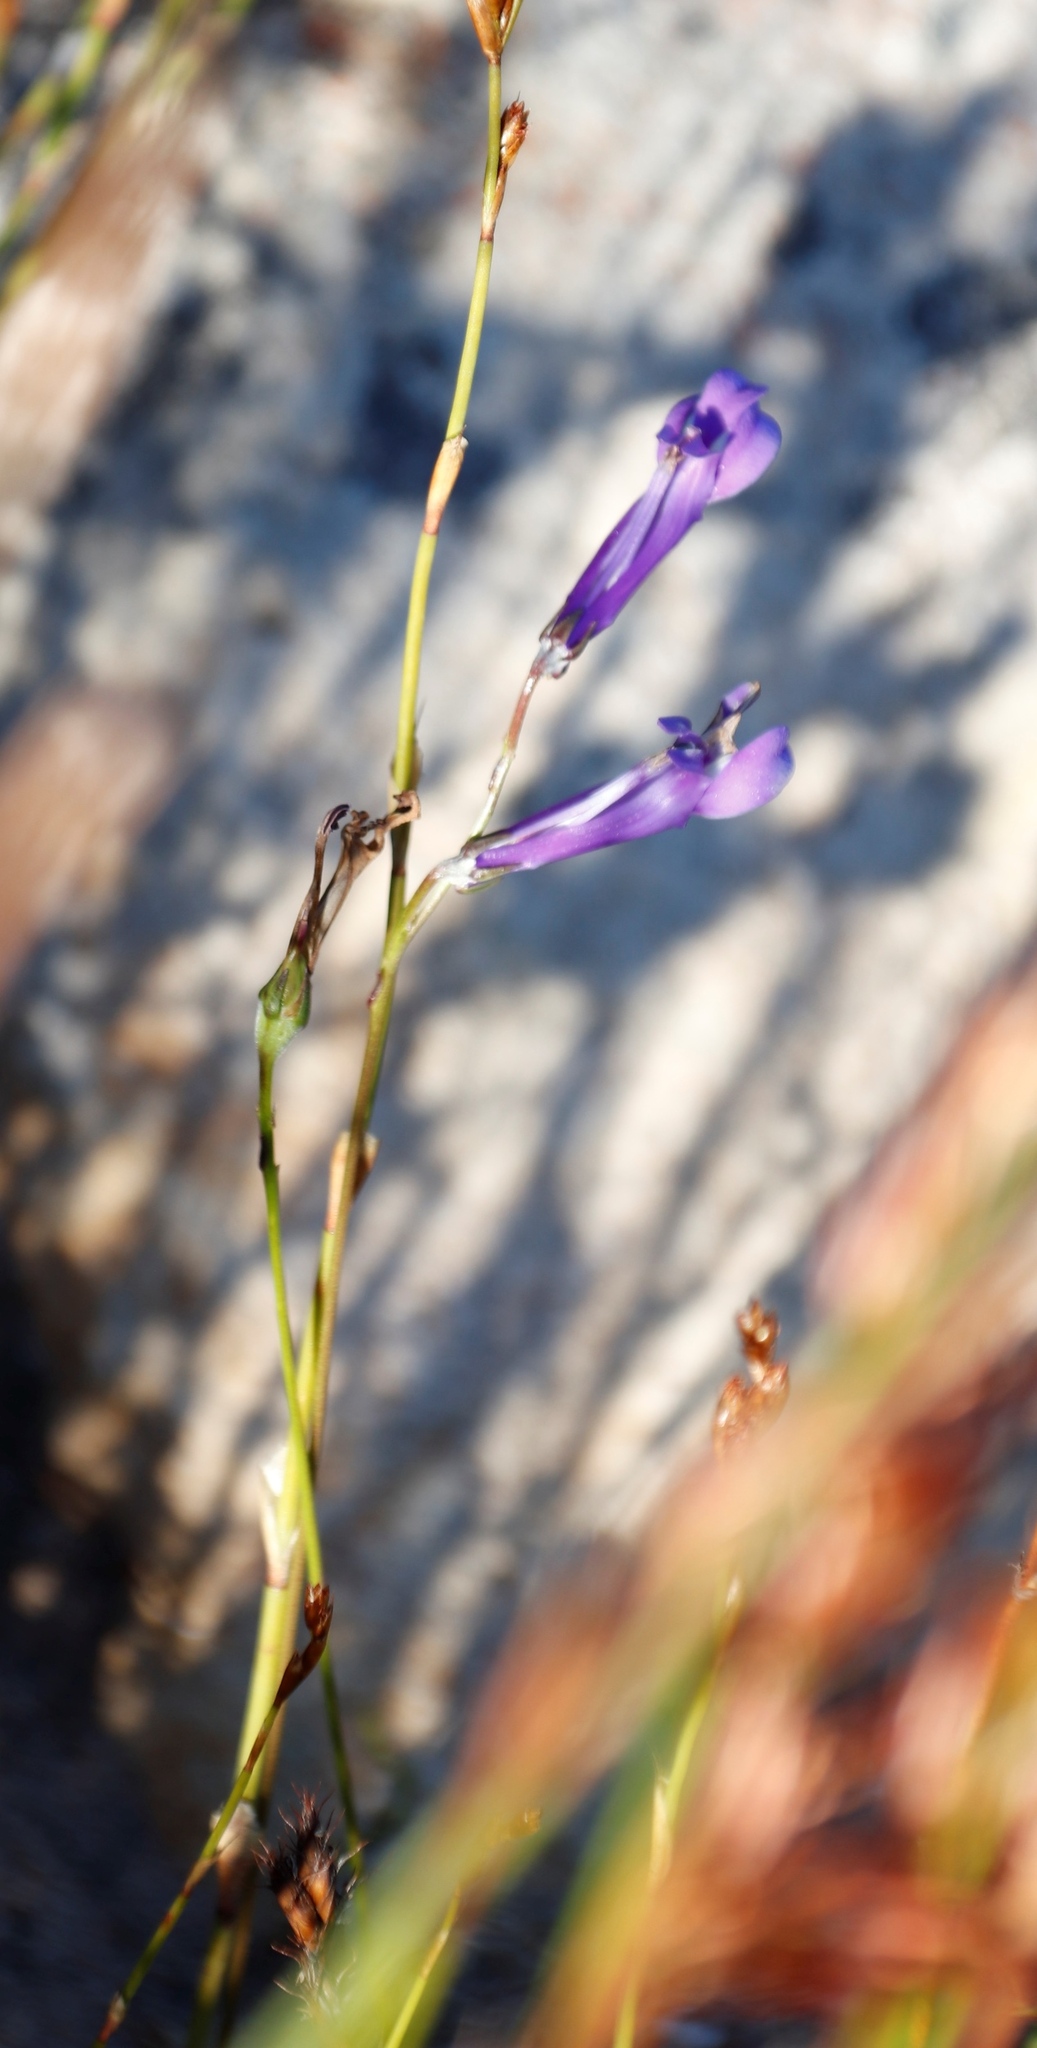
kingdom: Plantae
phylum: Tracheophyta
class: Magnoliopsida
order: Asterales
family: Campanulaceae
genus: Lobelia
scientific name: Lobelia coronopifolia
